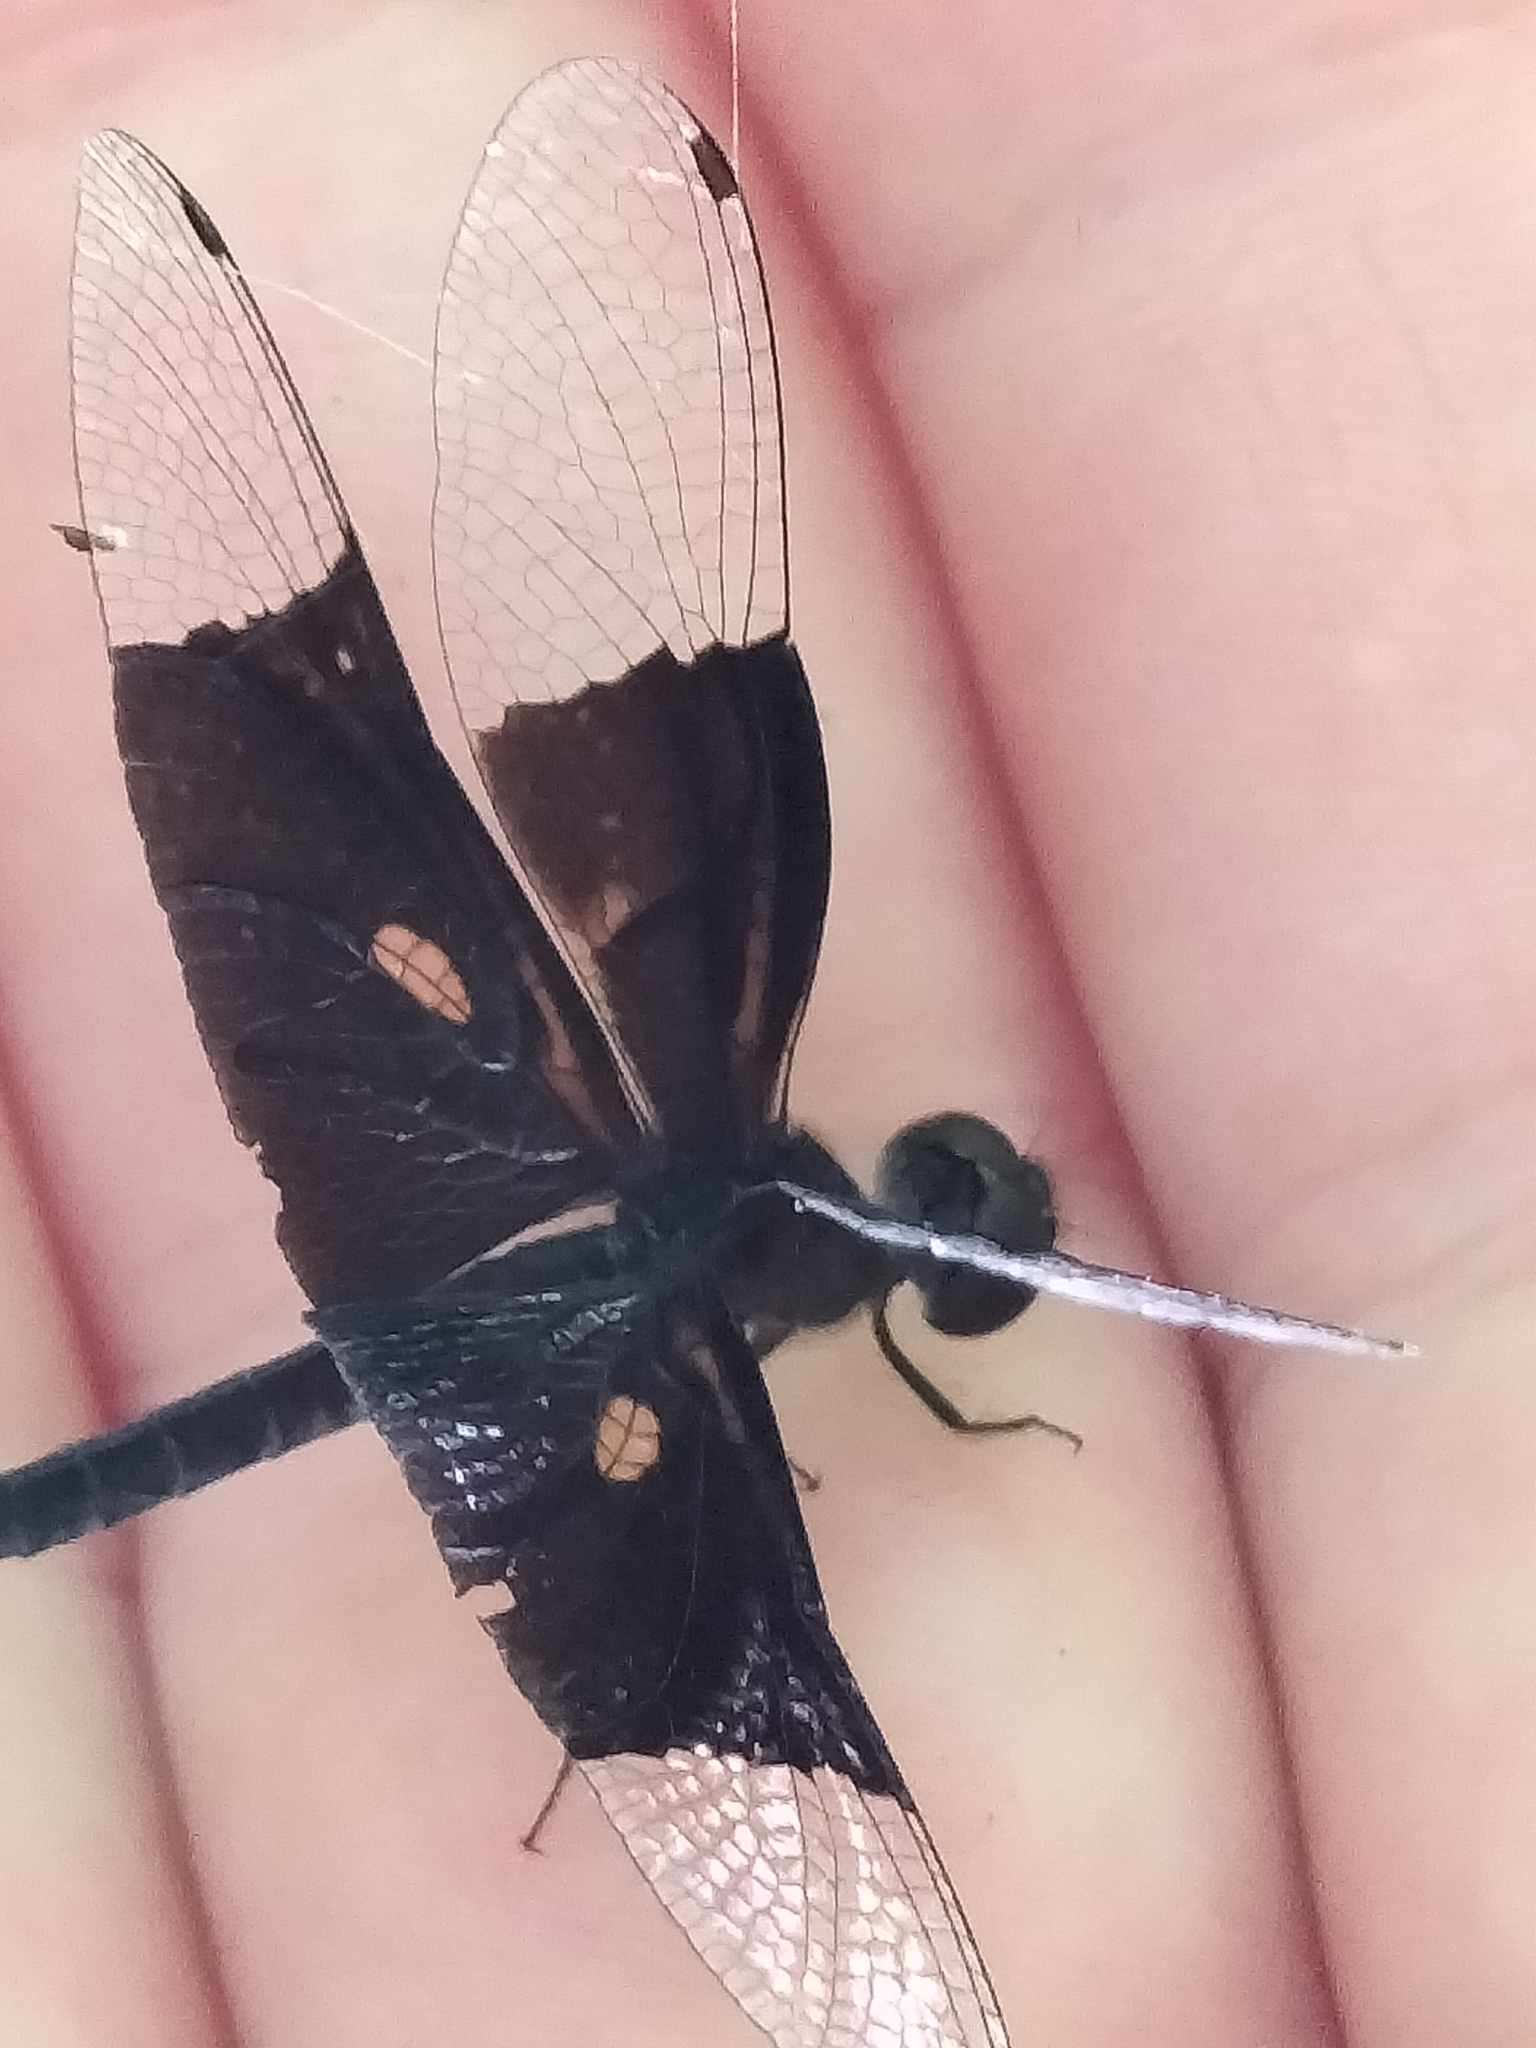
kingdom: Animalia
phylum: Arthropoda
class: Insecta
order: Odonata
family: Libellulidae
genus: Rhyothemis
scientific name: Rhyothemis resplendens
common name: Jewel flutterer
